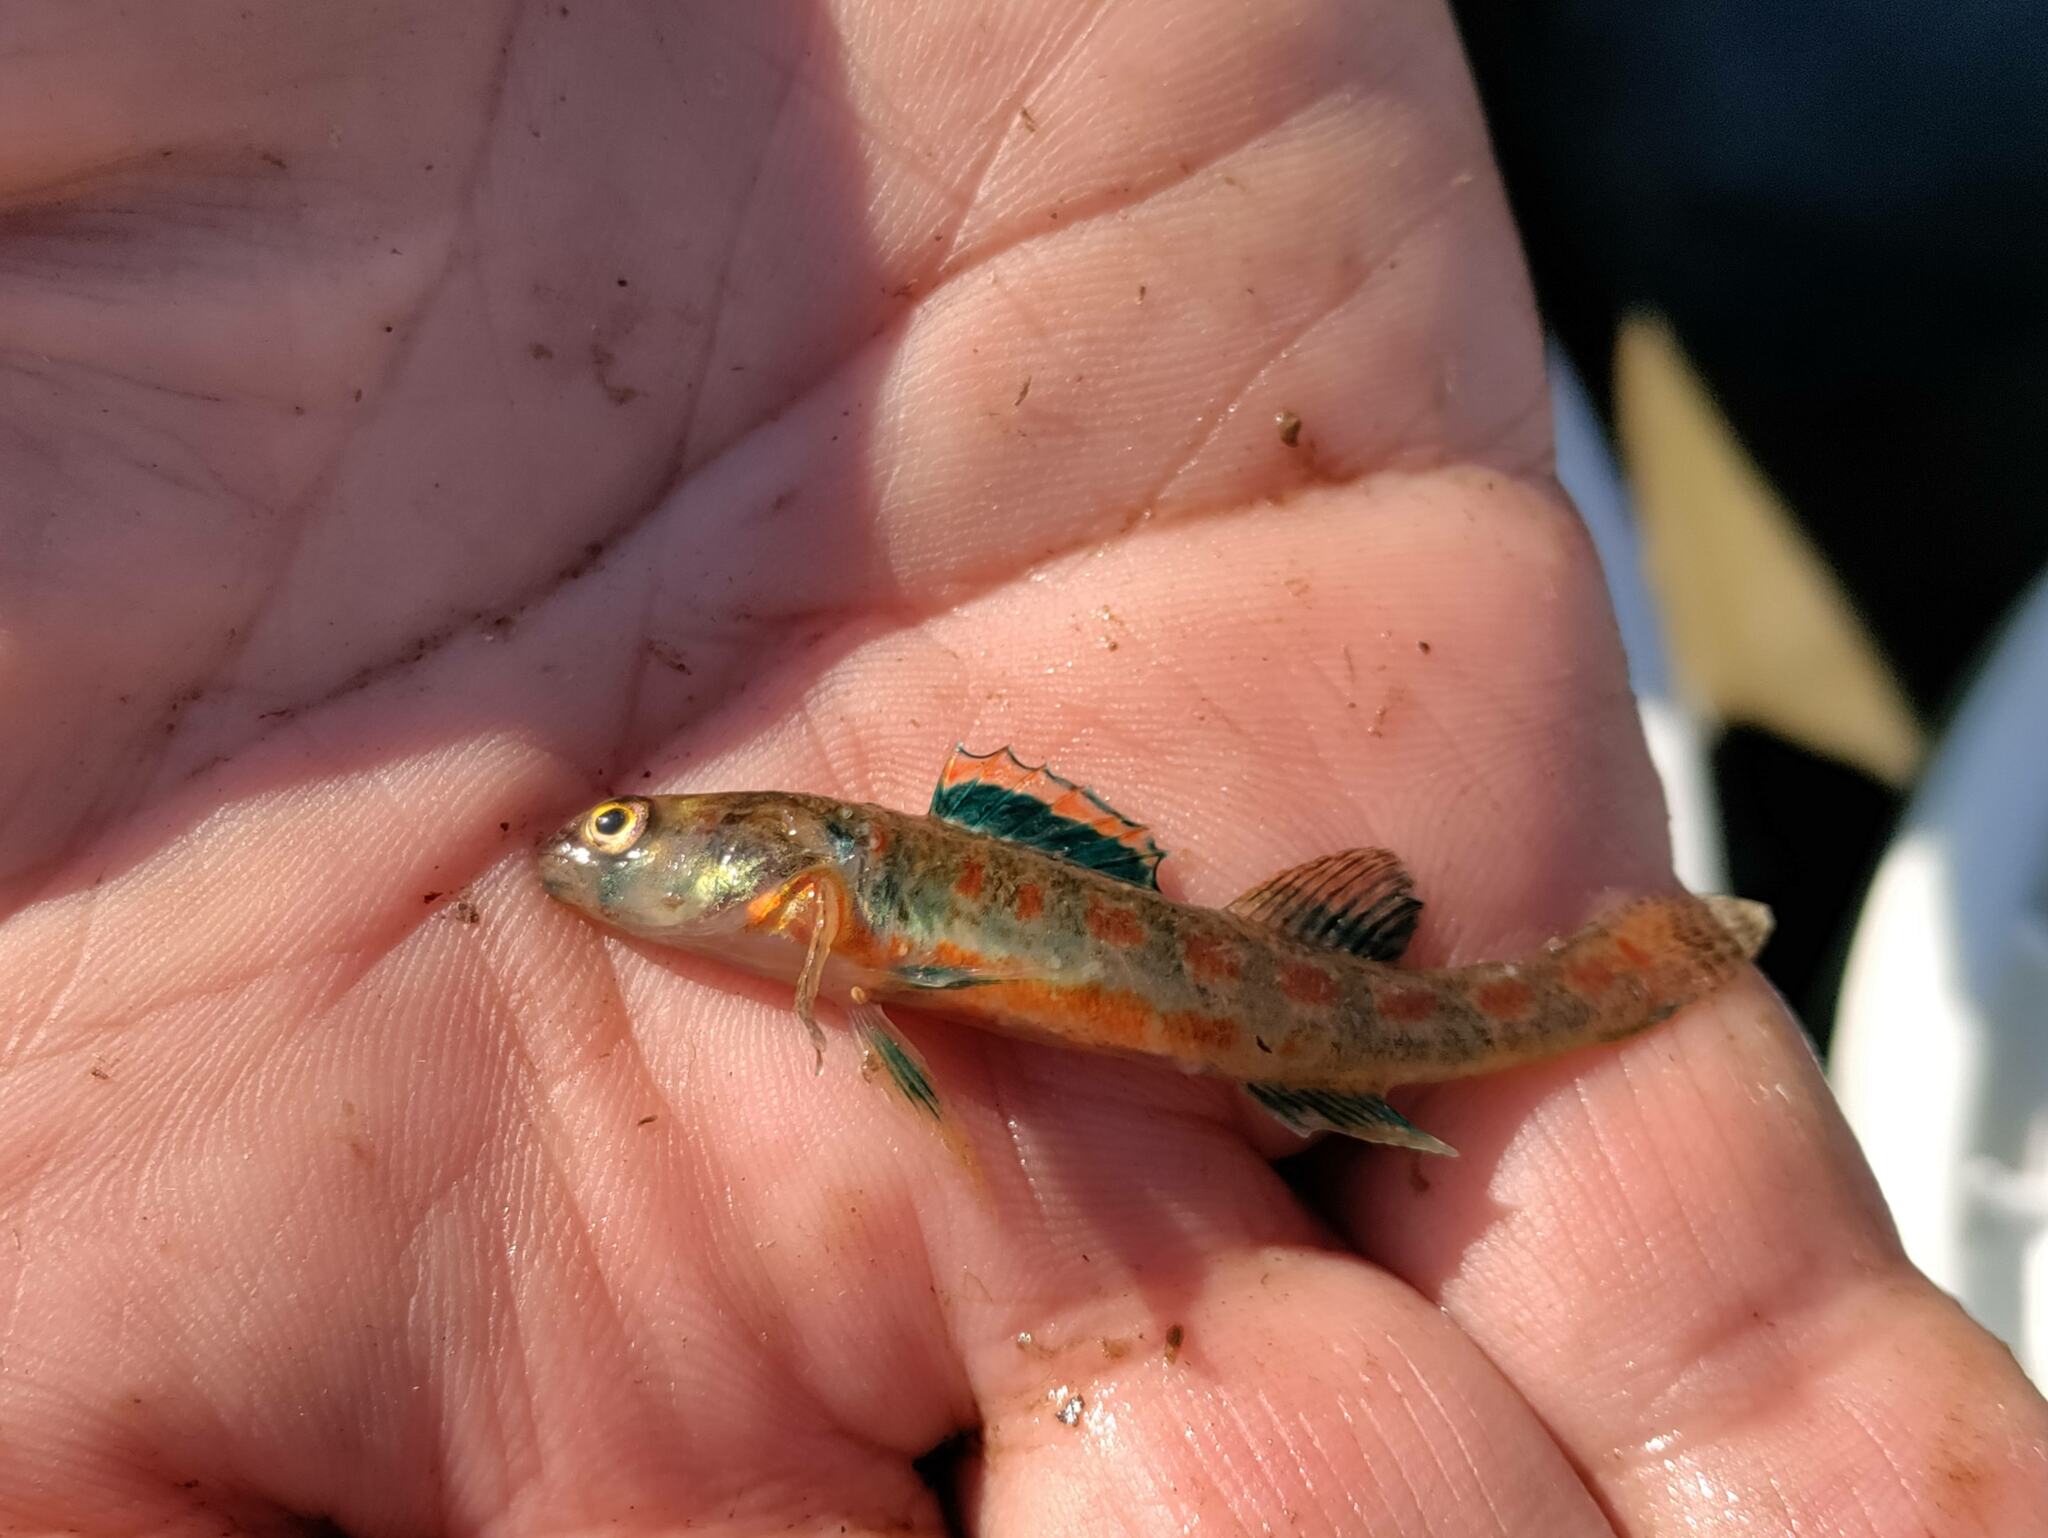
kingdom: Animalia
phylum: Chordata
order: Perciformes
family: Percidae
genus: Etheostoma
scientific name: Etheostoma exile
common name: Iowa darter
